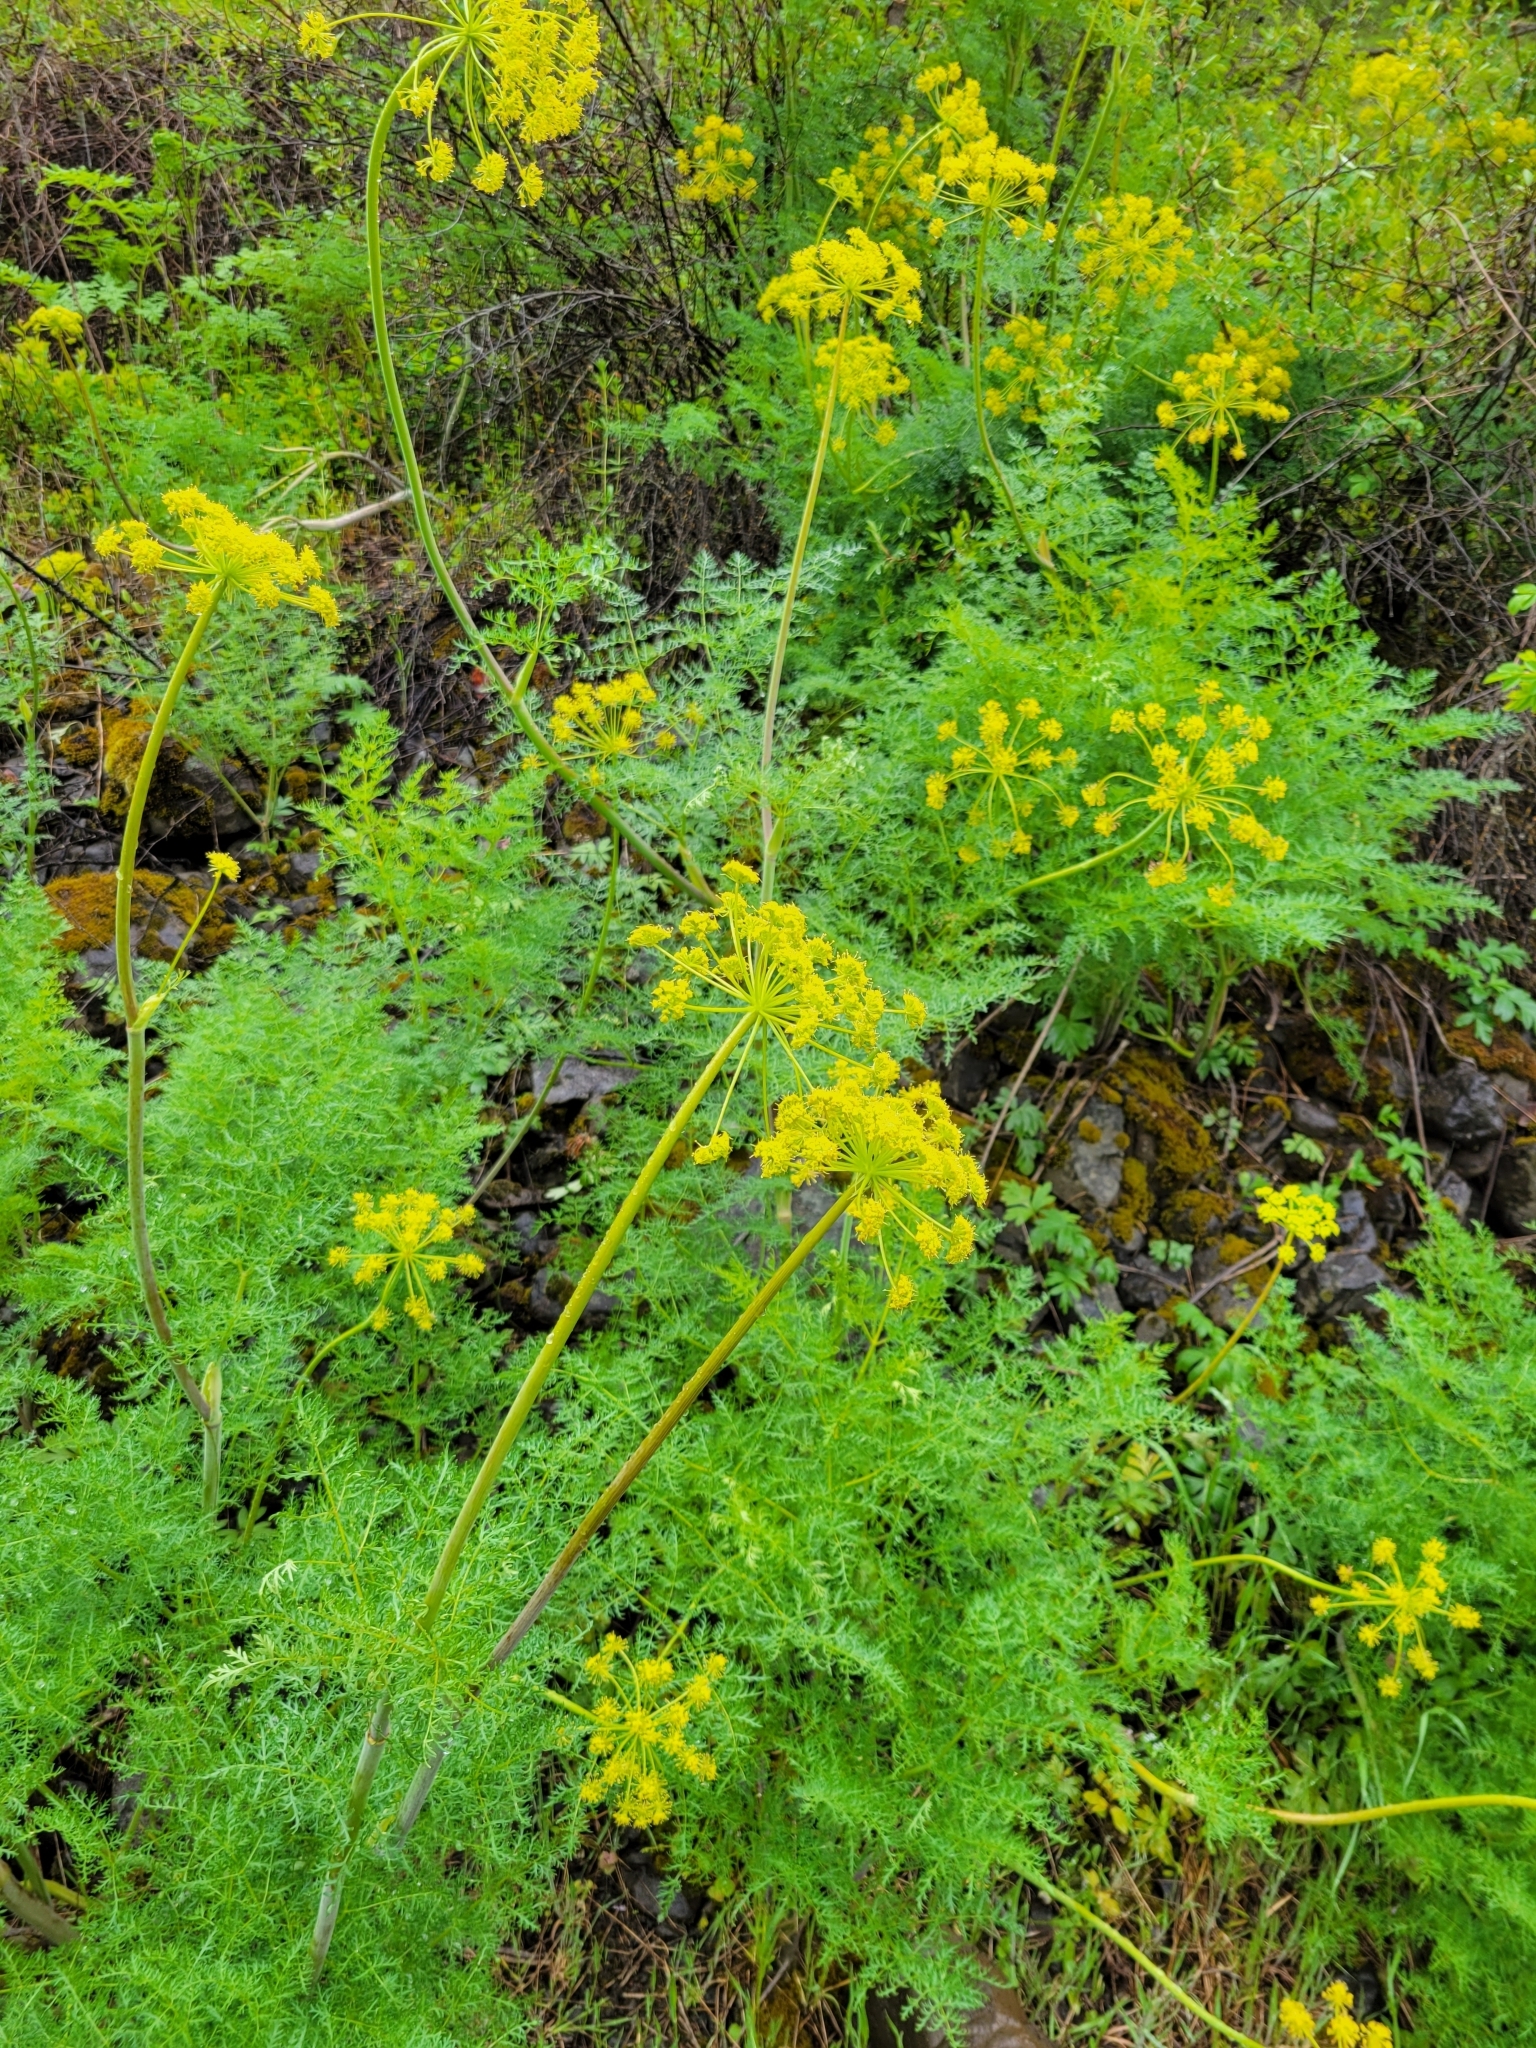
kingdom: Plantae
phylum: Tracheophyta
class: Magnoliopsida
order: Apiales
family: Apiaceae
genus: Lomatium
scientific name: Lomatium multifidum
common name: Carrot-leaved biscuitroot
